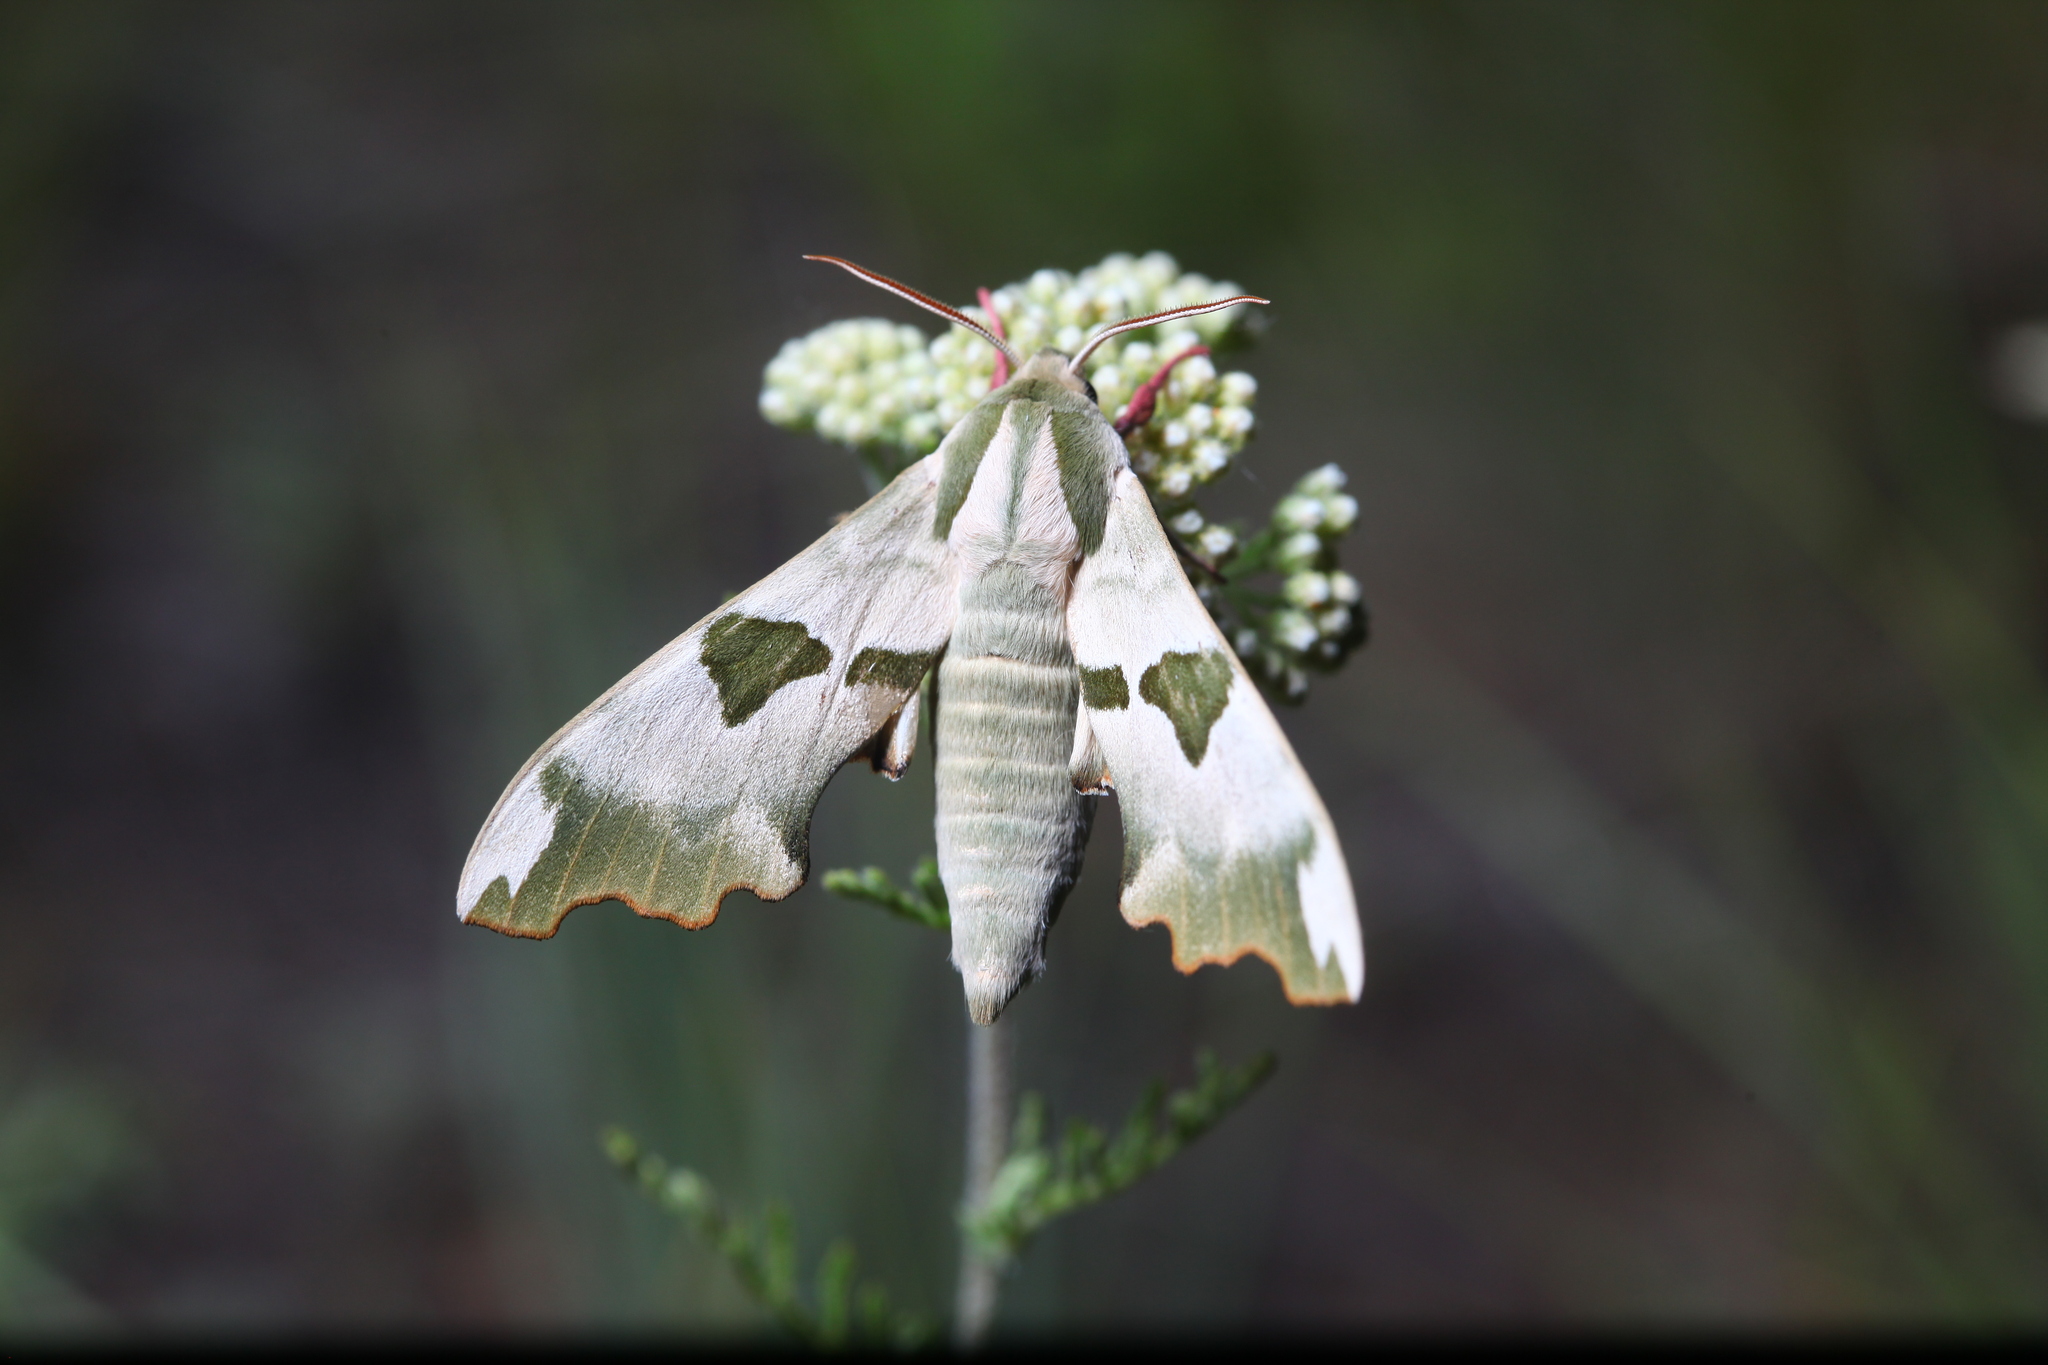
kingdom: Animalia
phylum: Arthropoda
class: Insecta
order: Lepidoptera
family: Sphingidae
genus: Mimas
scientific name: Mimas tiliae
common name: Lime hawk-moth
